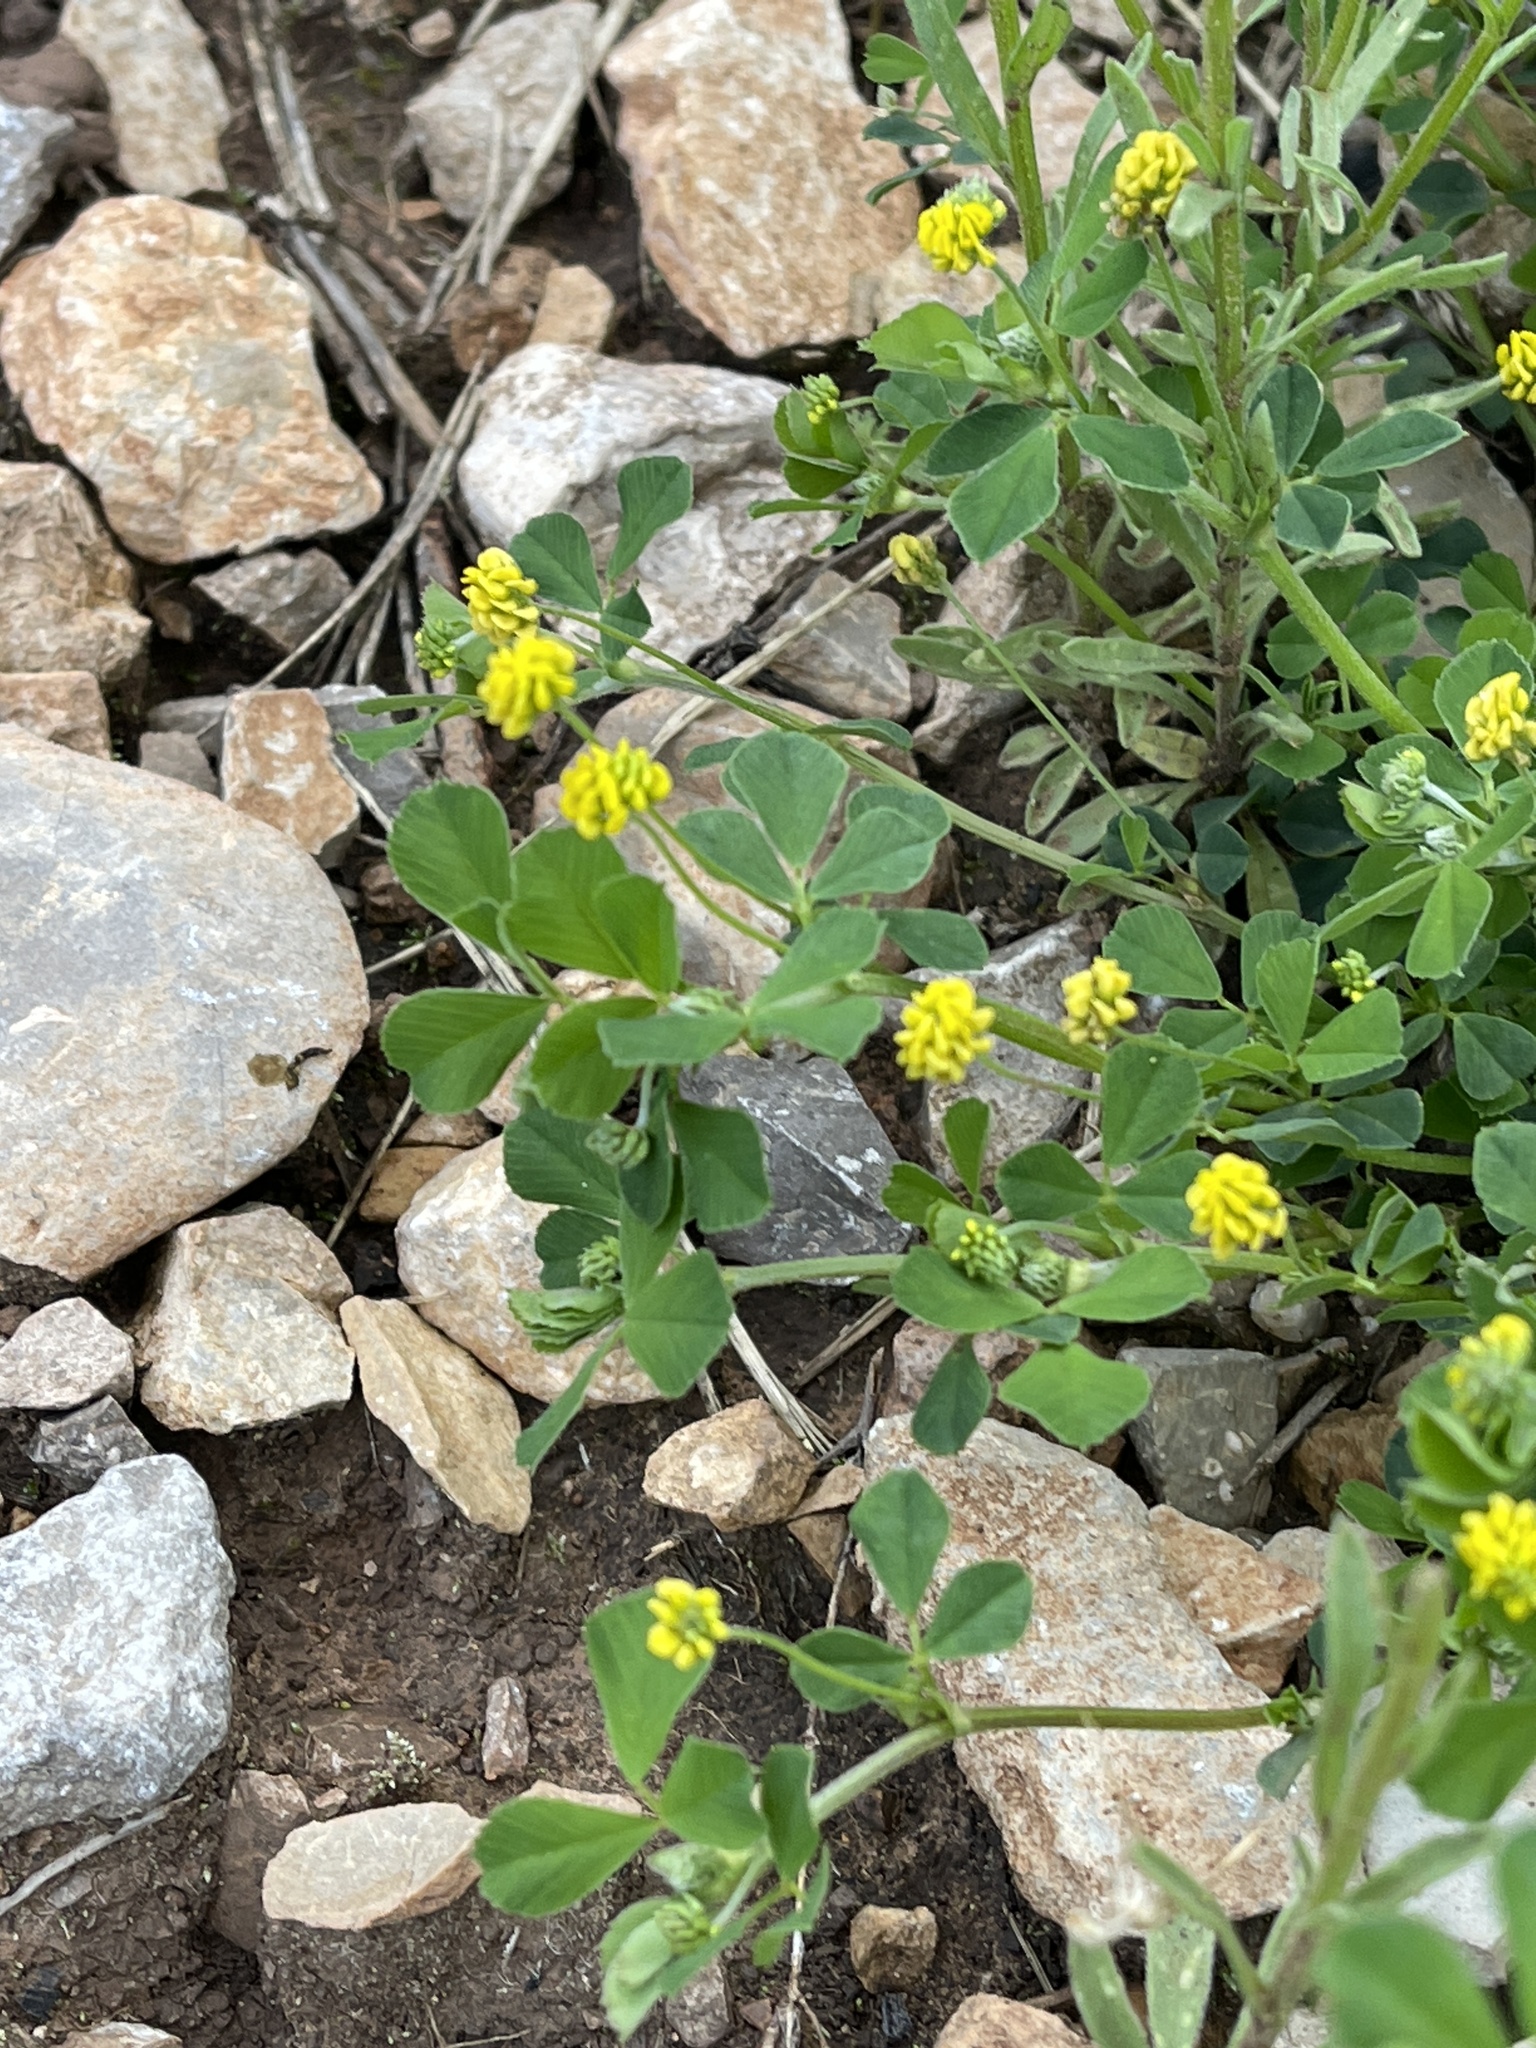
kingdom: Plantae
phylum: Tracheophyta
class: Magnoliopsida
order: Fabales
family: Fabaceae
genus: Medicago
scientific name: Medicago lupulina
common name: Black medick
